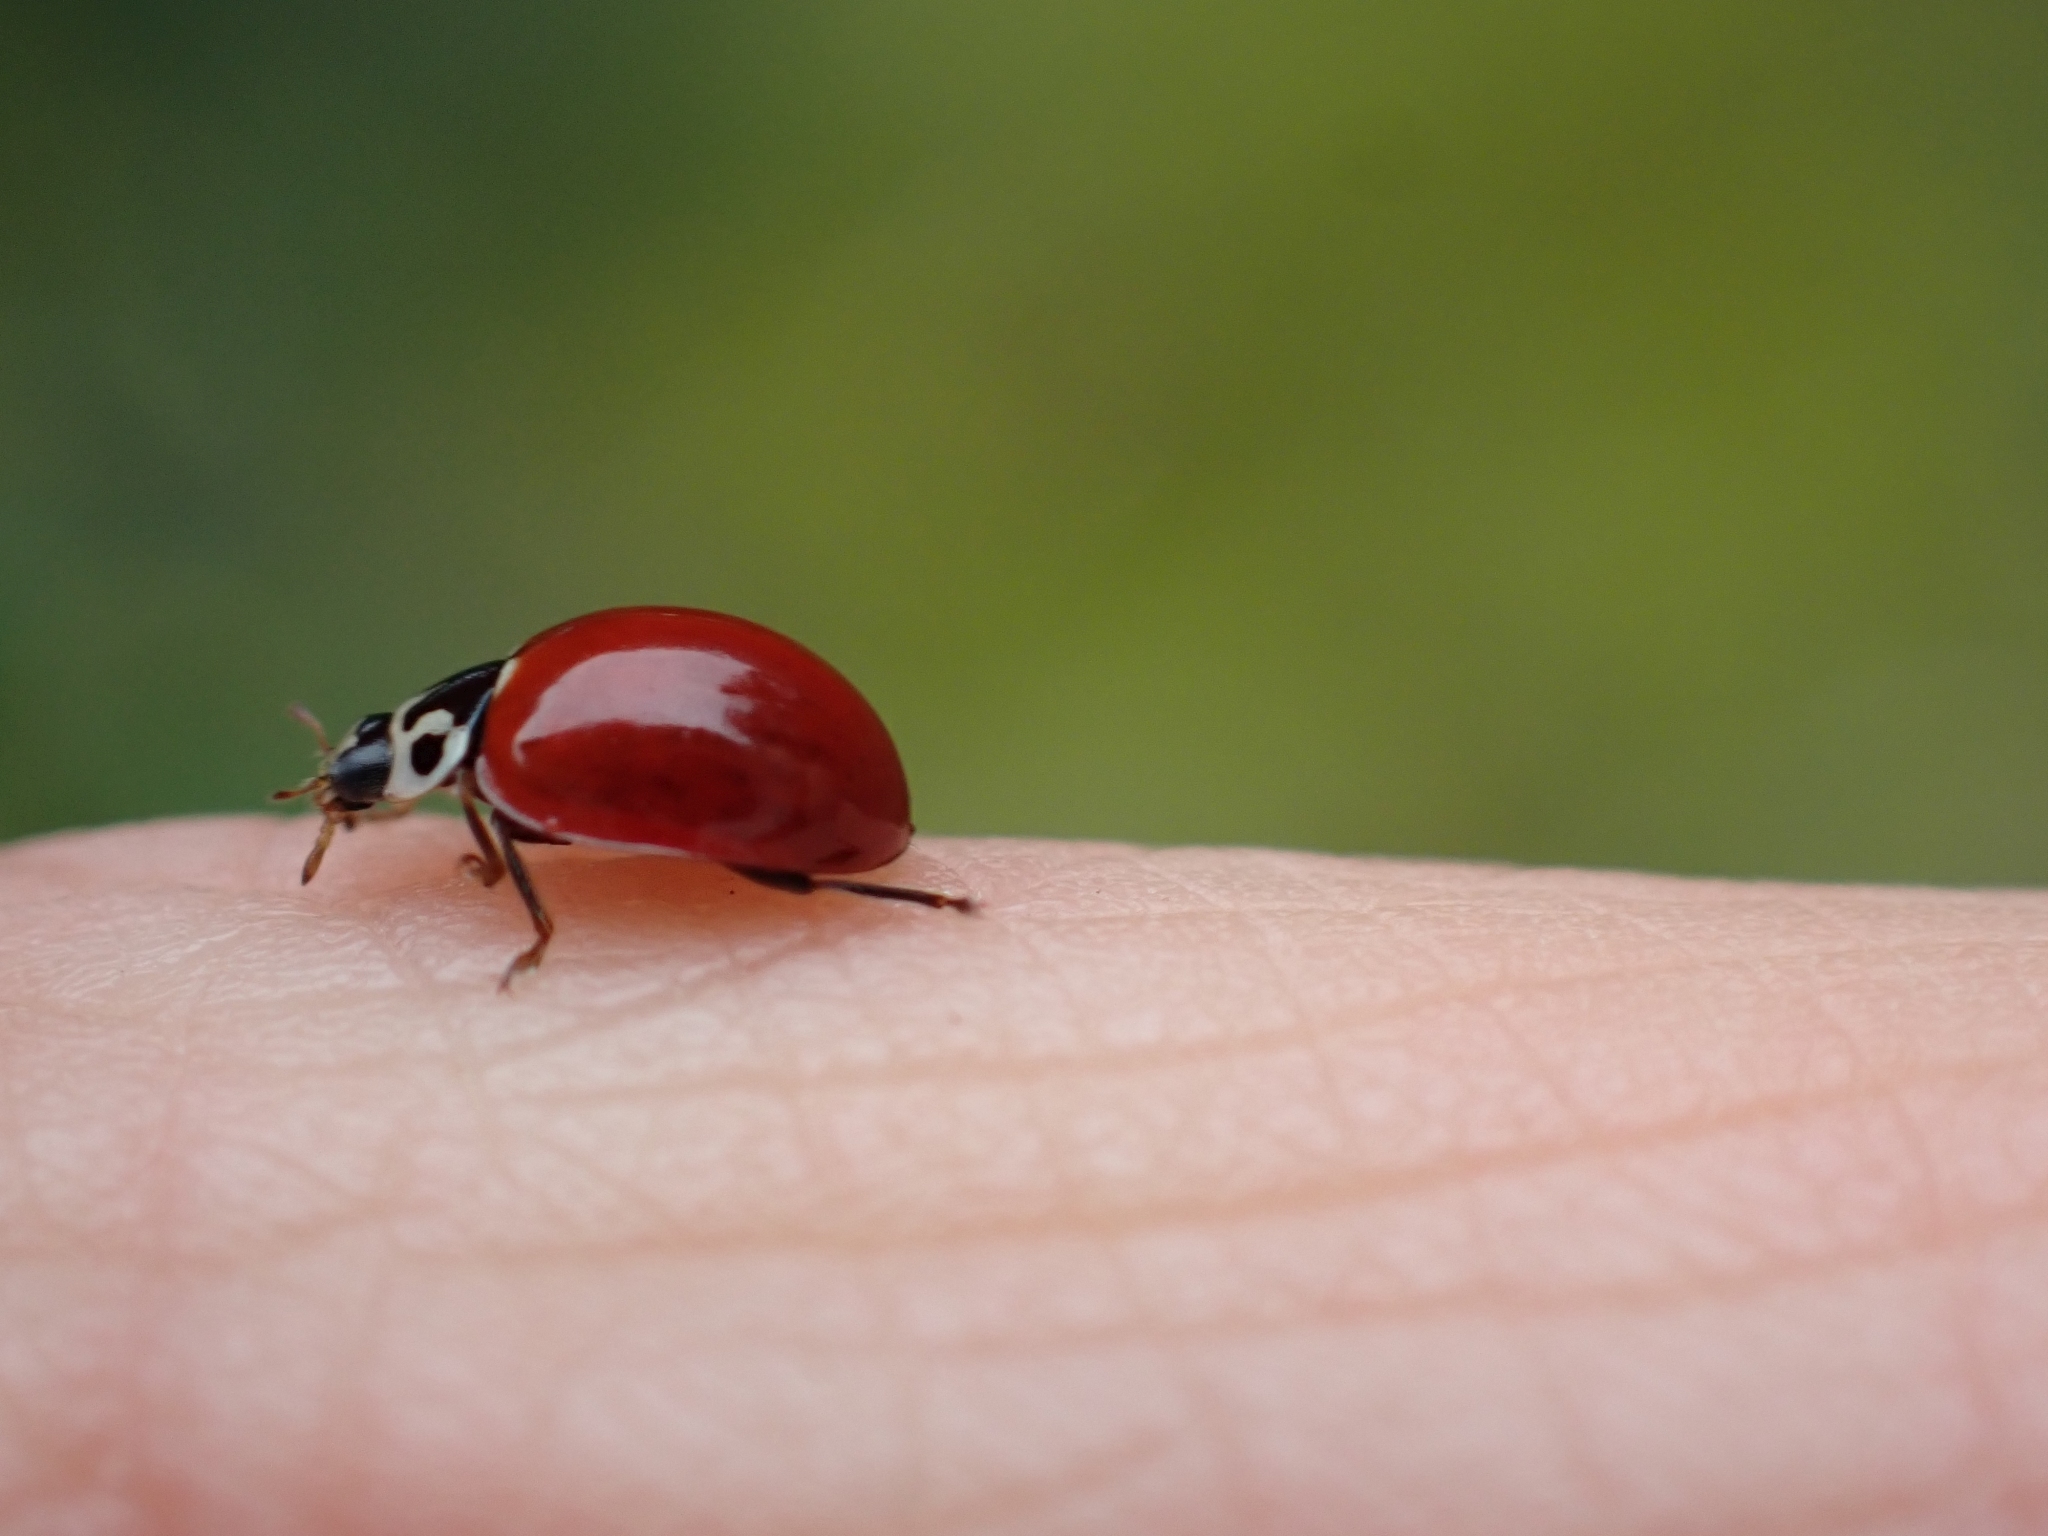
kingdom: Animalia
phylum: Arthropoda
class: Insecta
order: Coleoptera
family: Coccinellidae
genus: Cycloneda
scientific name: Cycloneda polita
